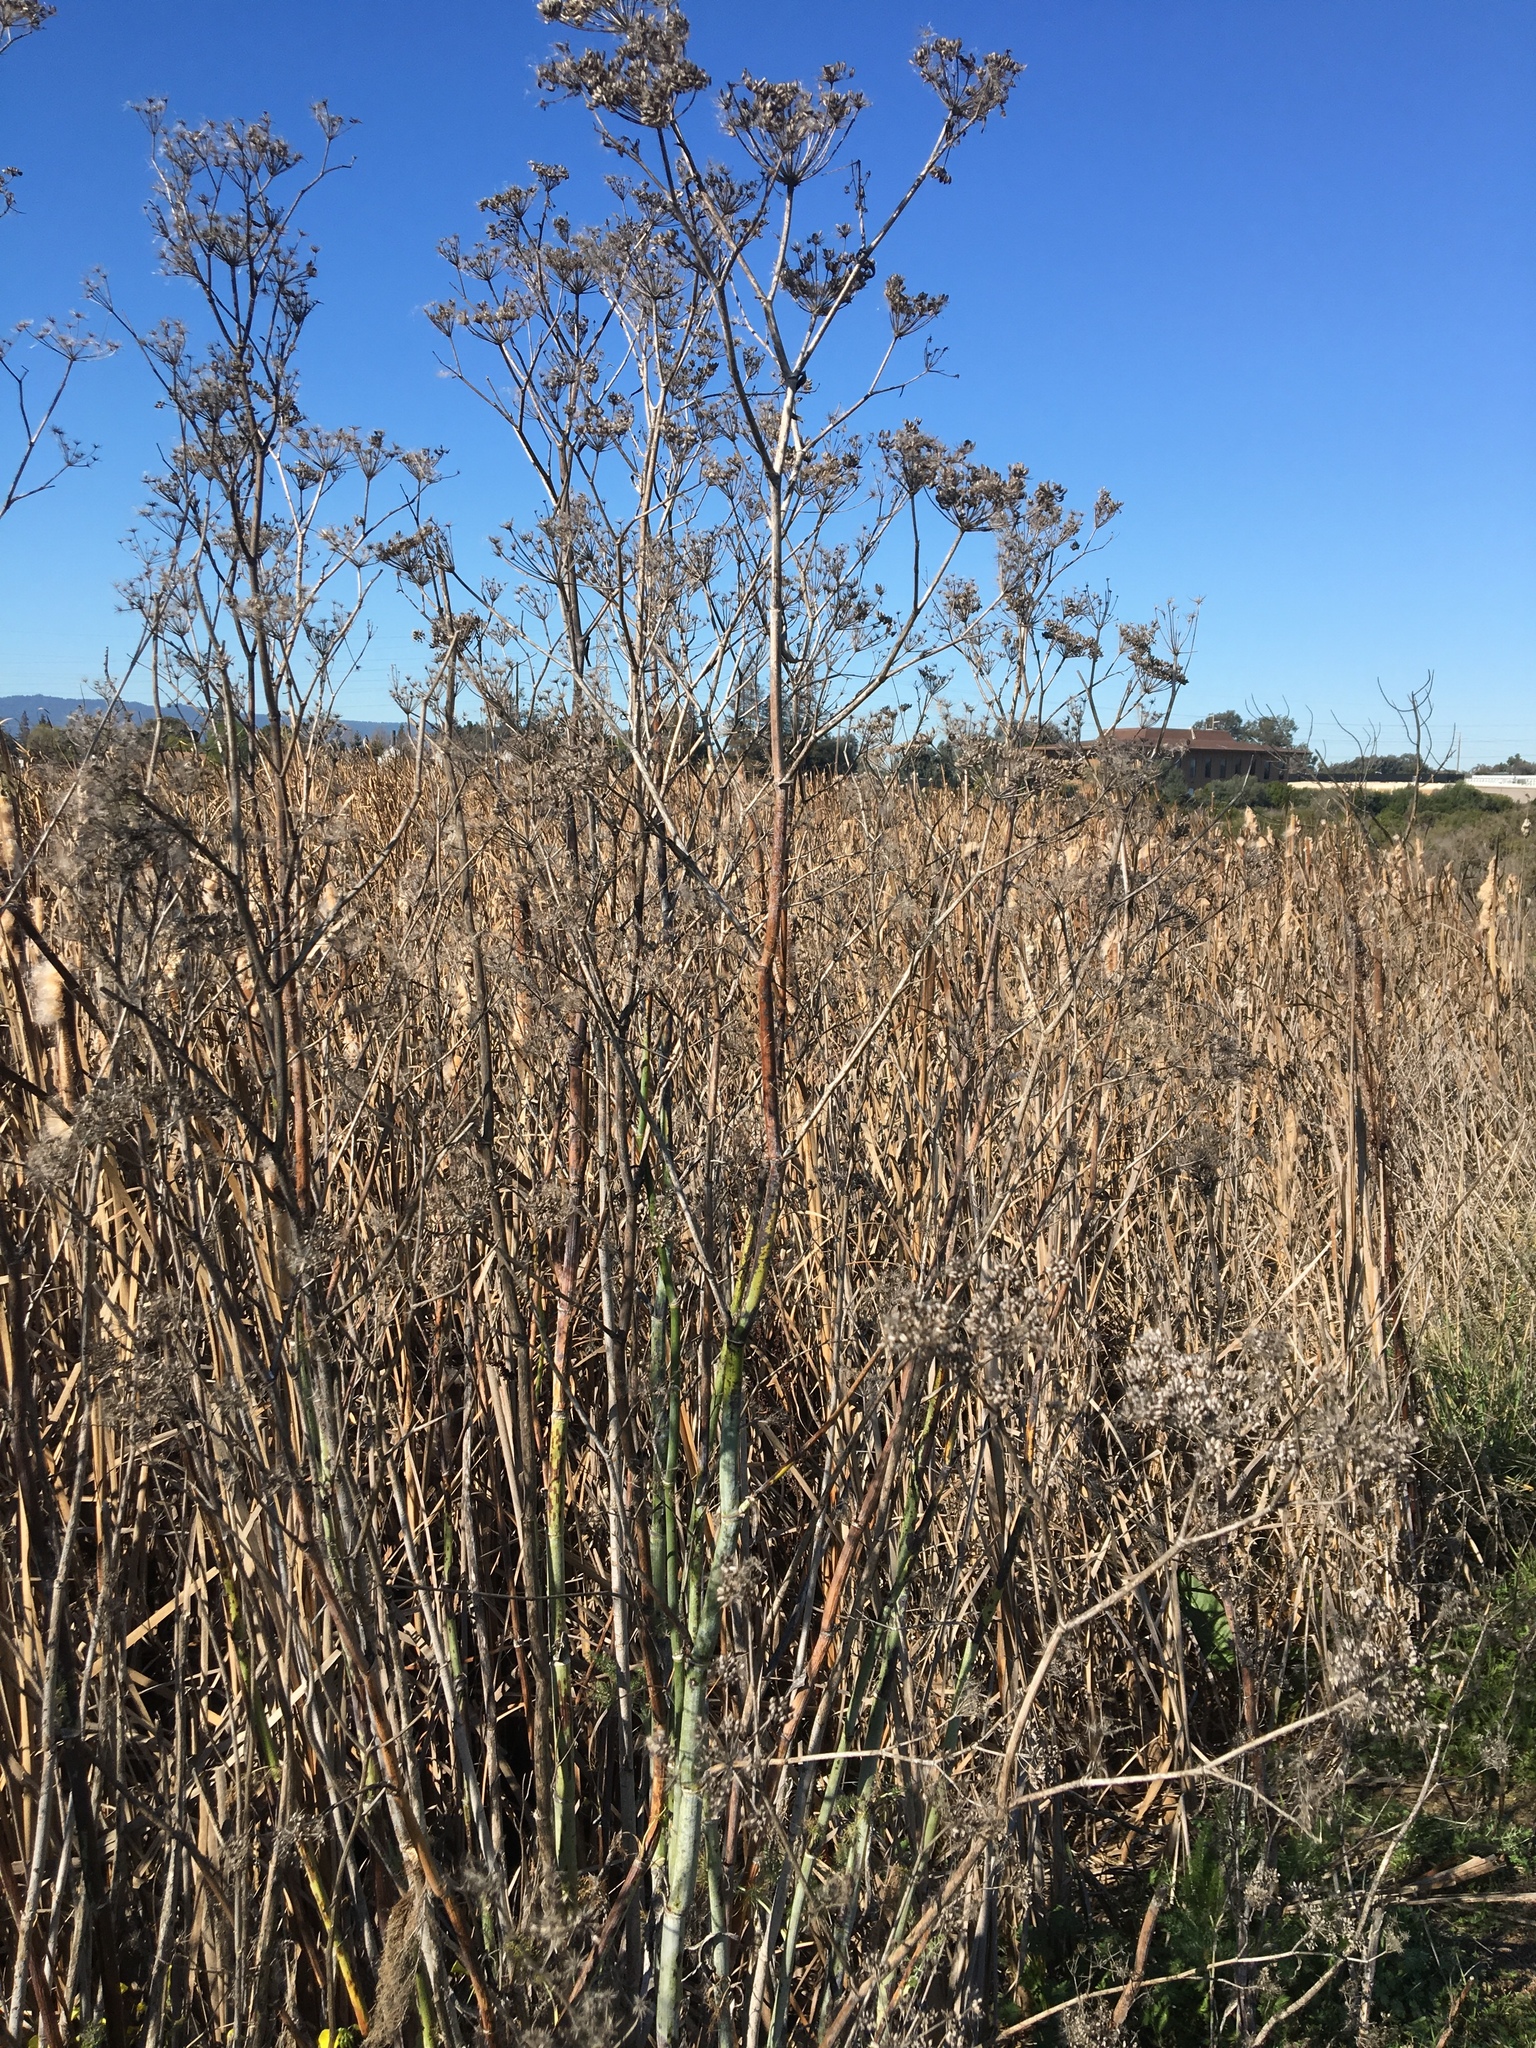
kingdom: Plantae
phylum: Tracheophyta
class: Magnoliopsida
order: Apiales
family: Apiaceae
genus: Foeniculum
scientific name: Foeniculum vulgare
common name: Fennel
